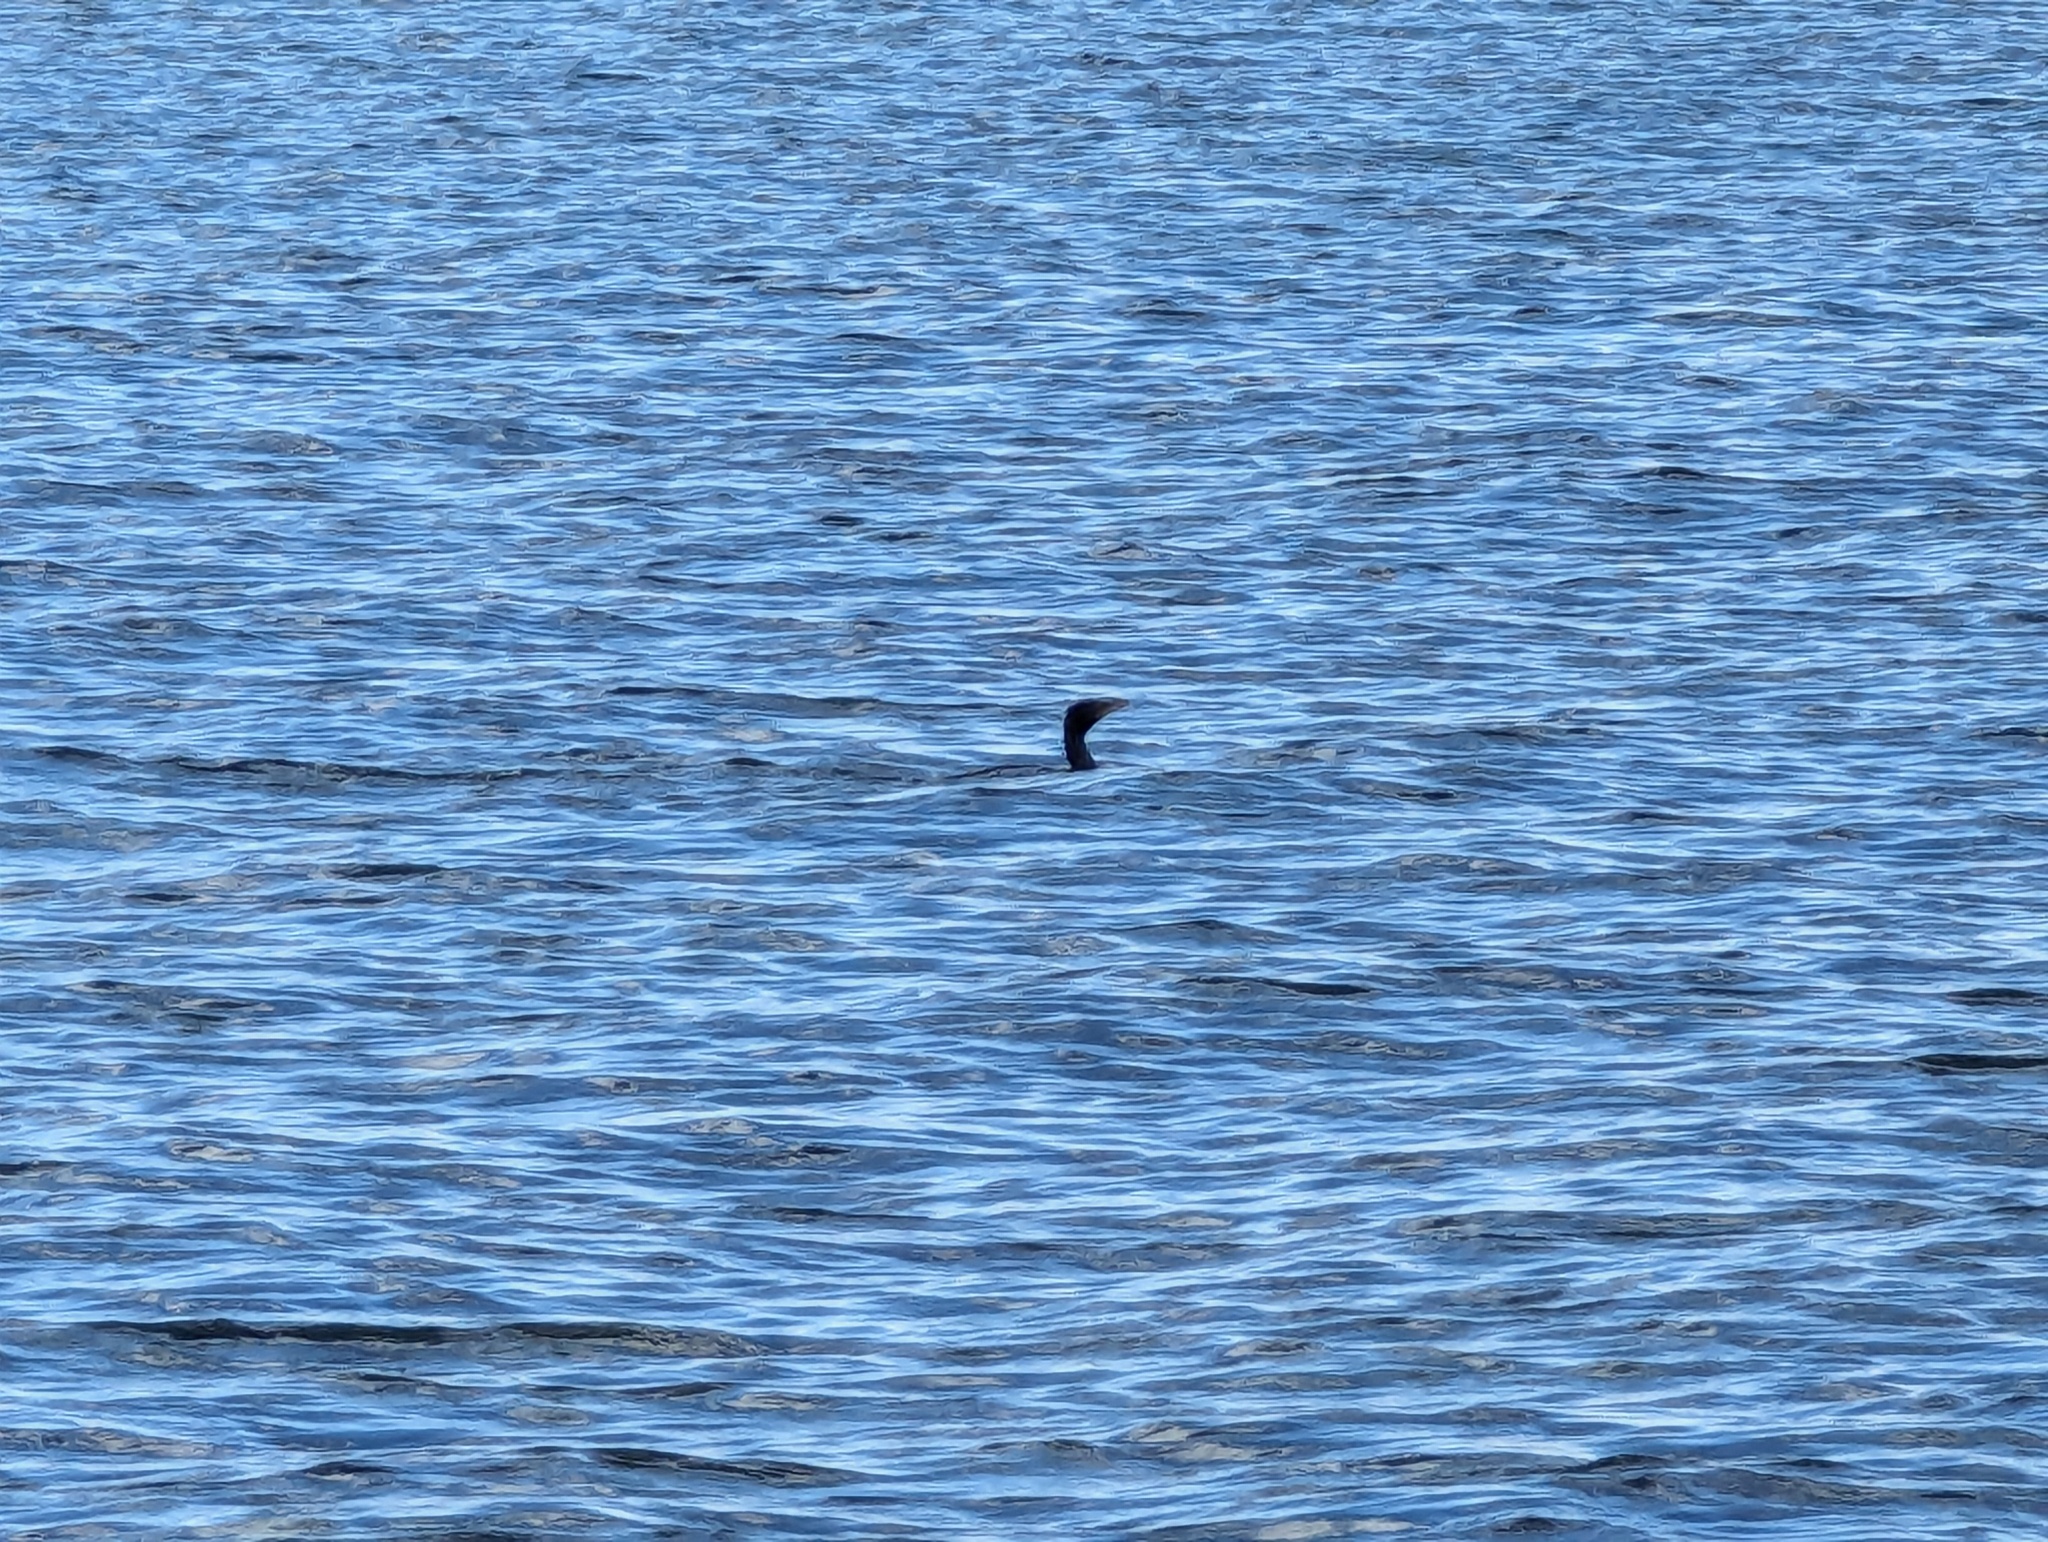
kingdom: Animalia
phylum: Chordata
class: Aves
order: Suliformes
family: Phalacrocoracidae
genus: Microcarbo
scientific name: Microcarbo melanoleucos
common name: Little pied cormorant
